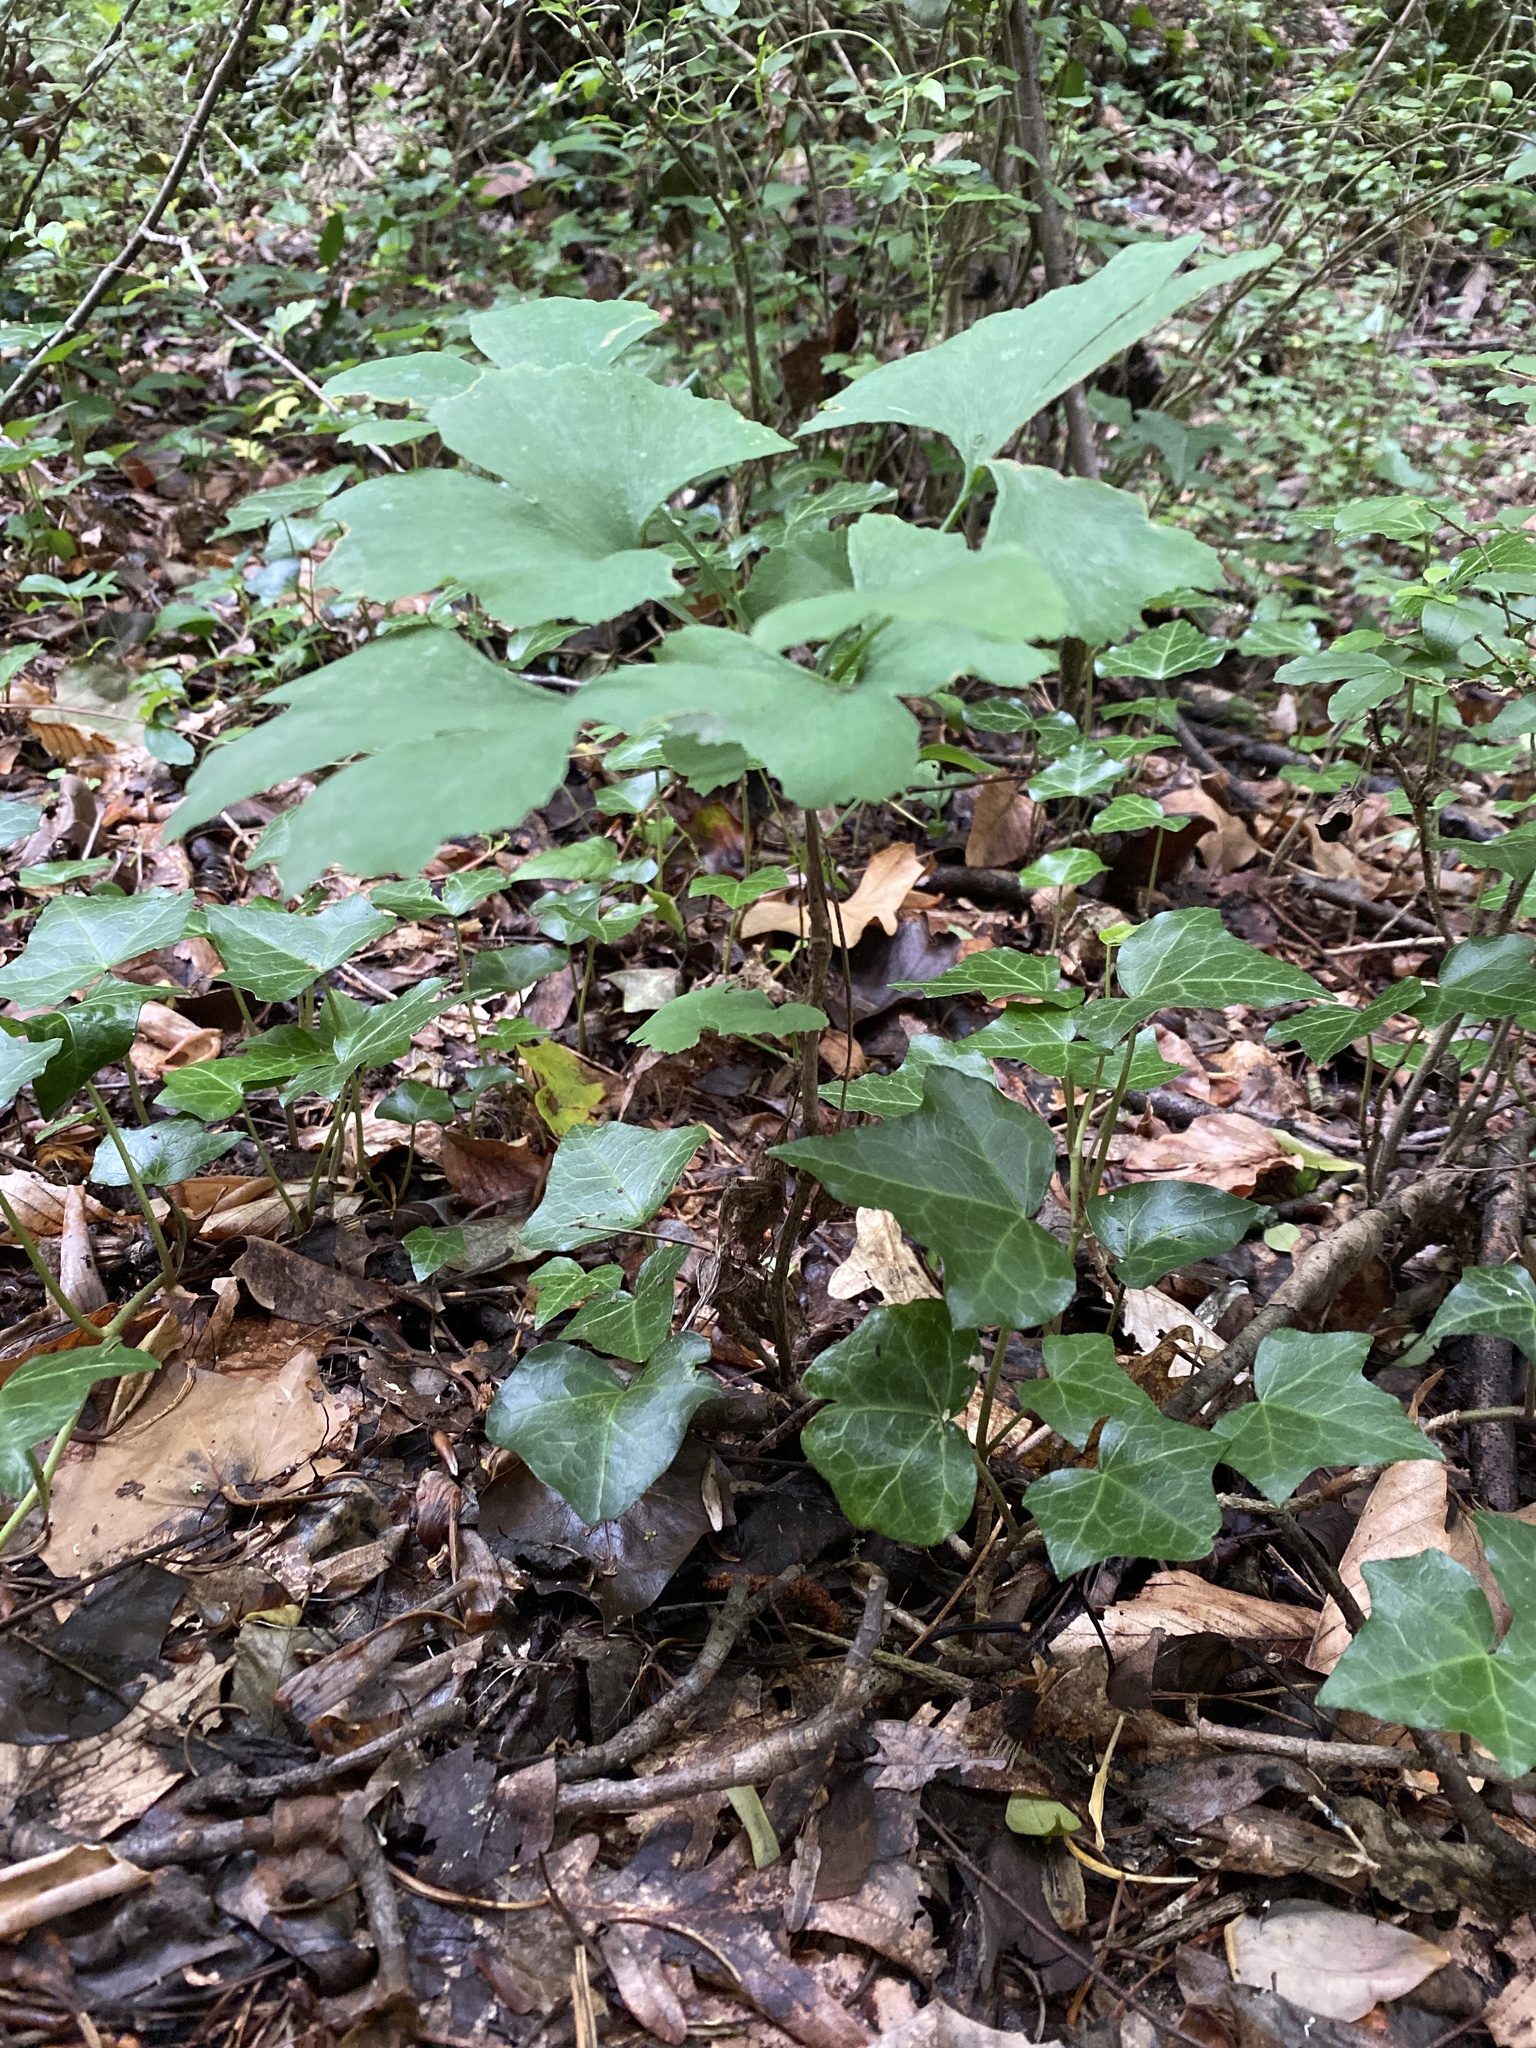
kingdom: Plantae
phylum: Tracheophyta
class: Ginkgoopsida
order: Ginkgoales
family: Ginkgoaceae
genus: Ginkgo
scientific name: Ginkgo biloba
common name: Ginkgo
